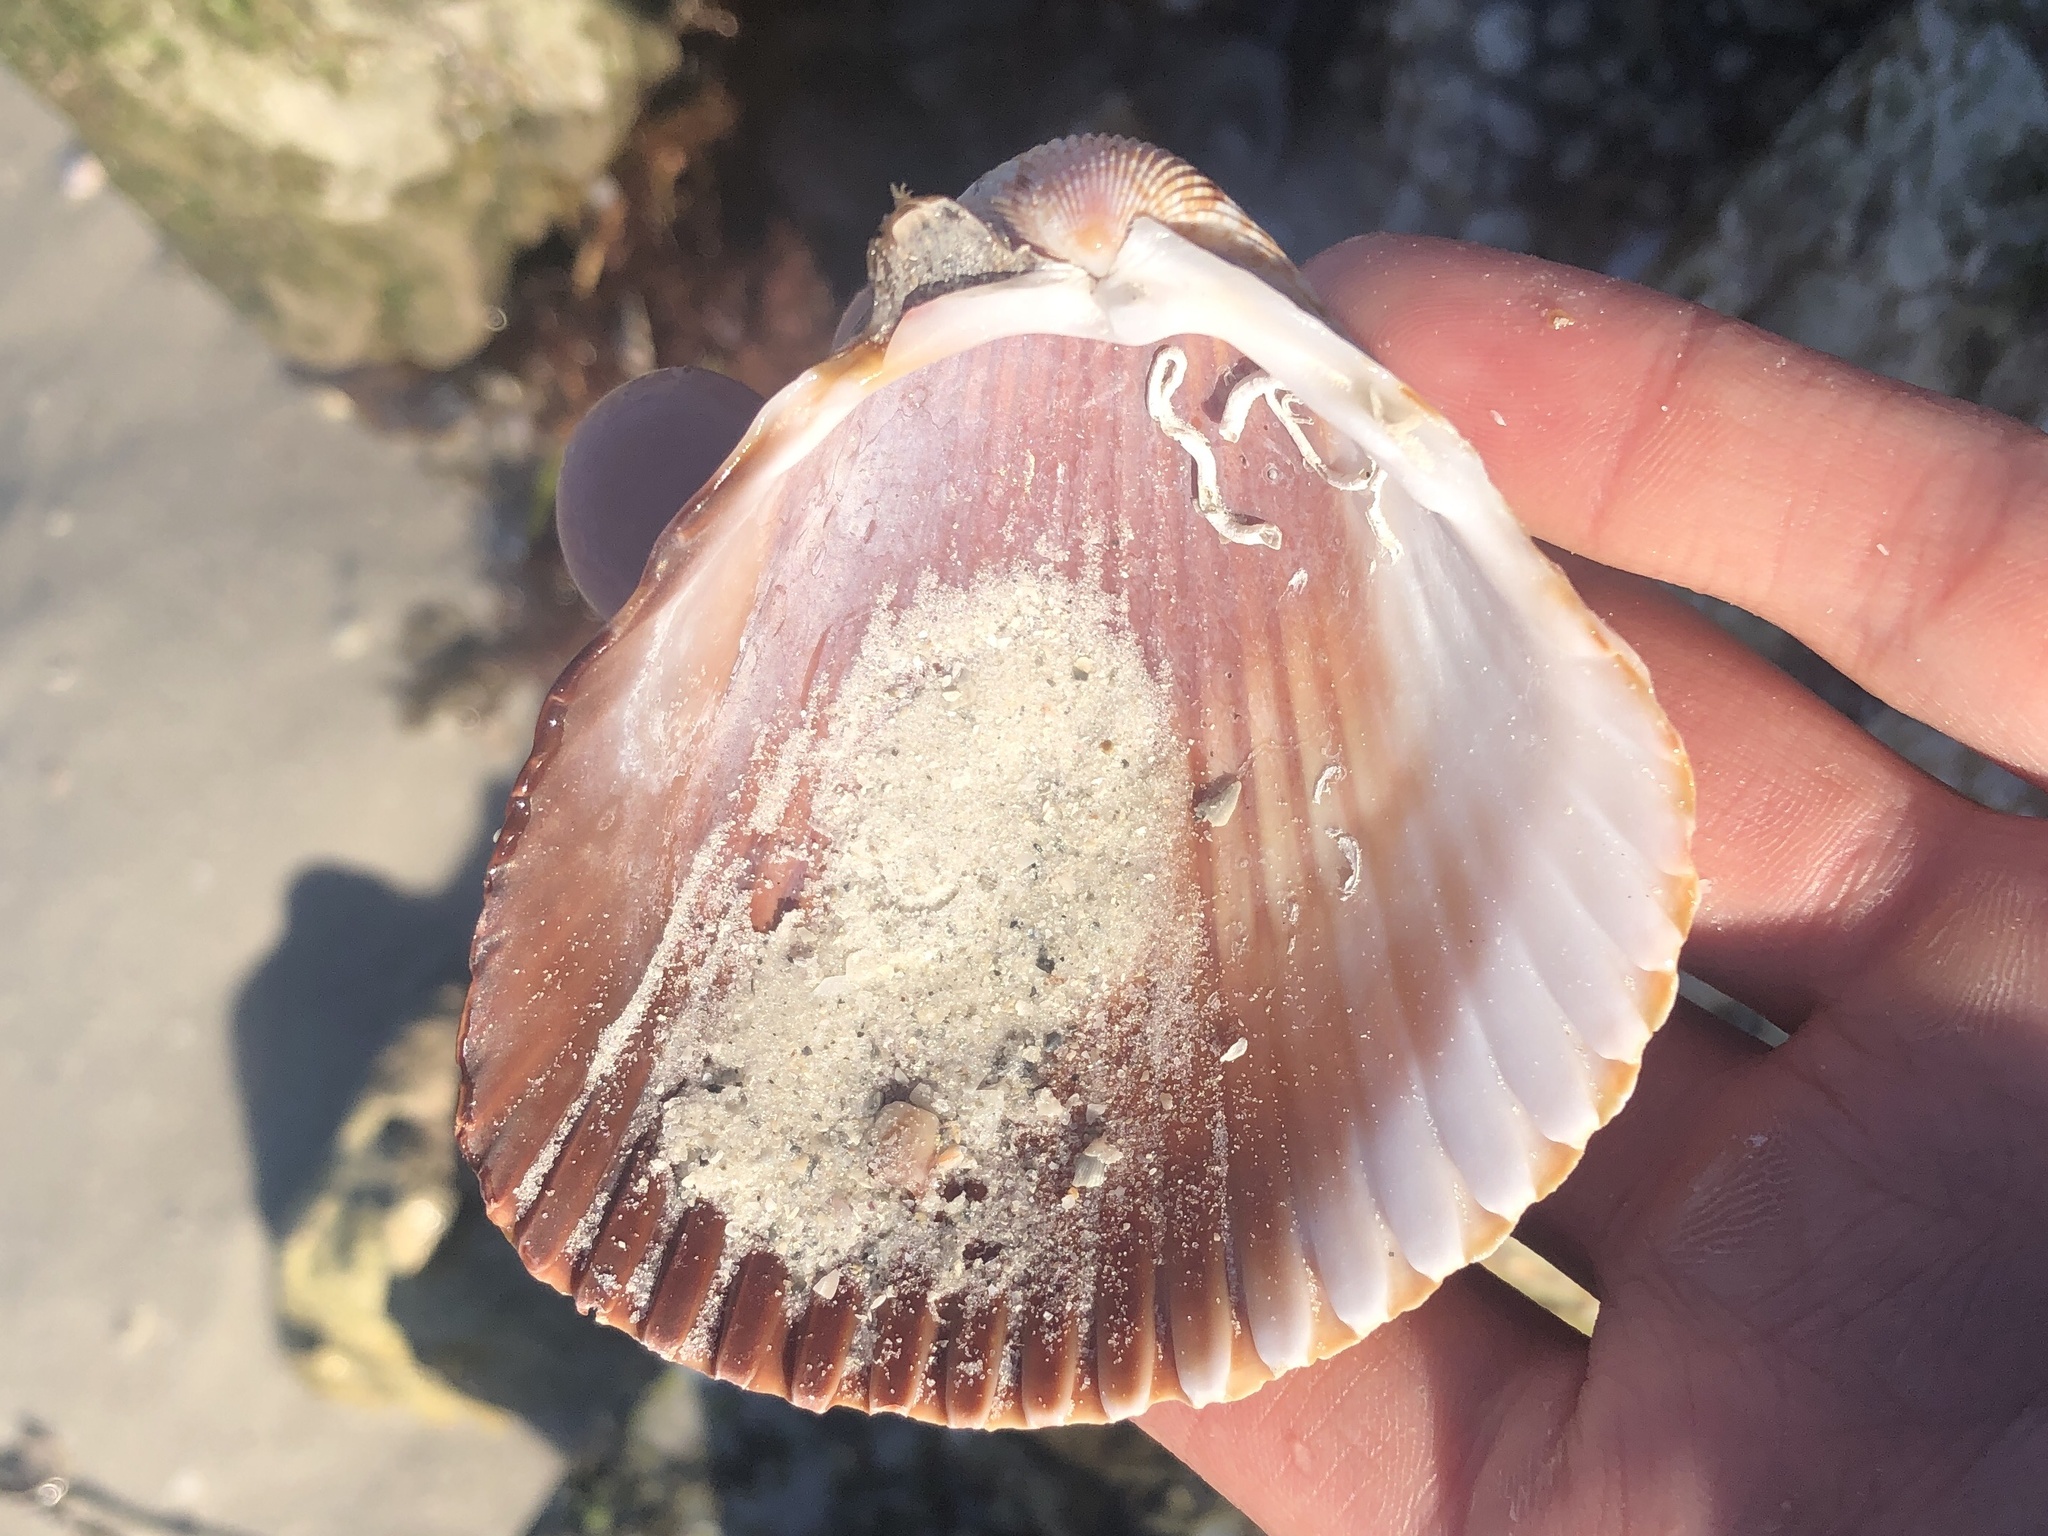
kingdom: Animalia
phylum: Mollusca
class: Bivalvia
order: Cardiida
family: Cardiidae
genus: Dinocardium
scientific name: Dinocardium robustum
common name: Atlantic giant cockle
